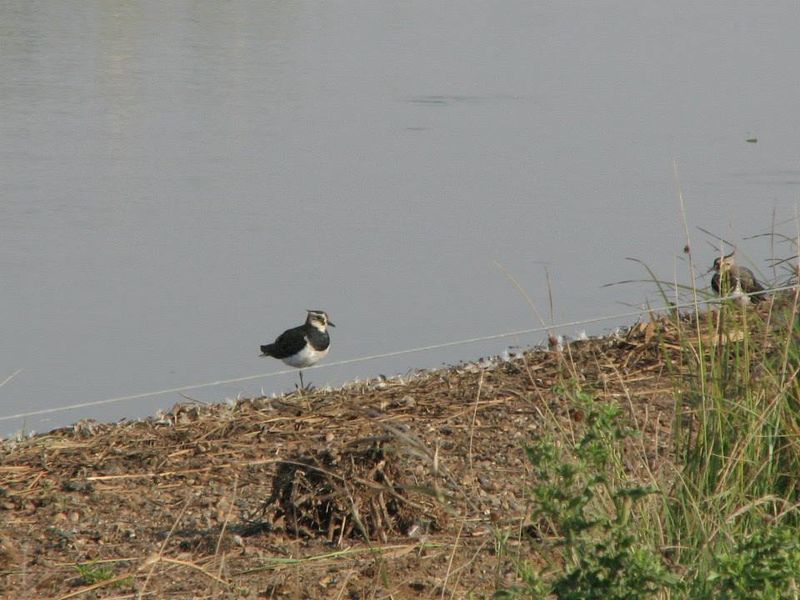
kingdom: Animalia
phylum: Chordata
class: Aves
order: Charadriiformes
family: Charadriidae
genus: Vanellus
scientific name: Vanellus vanellus
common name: Northern lapwing
